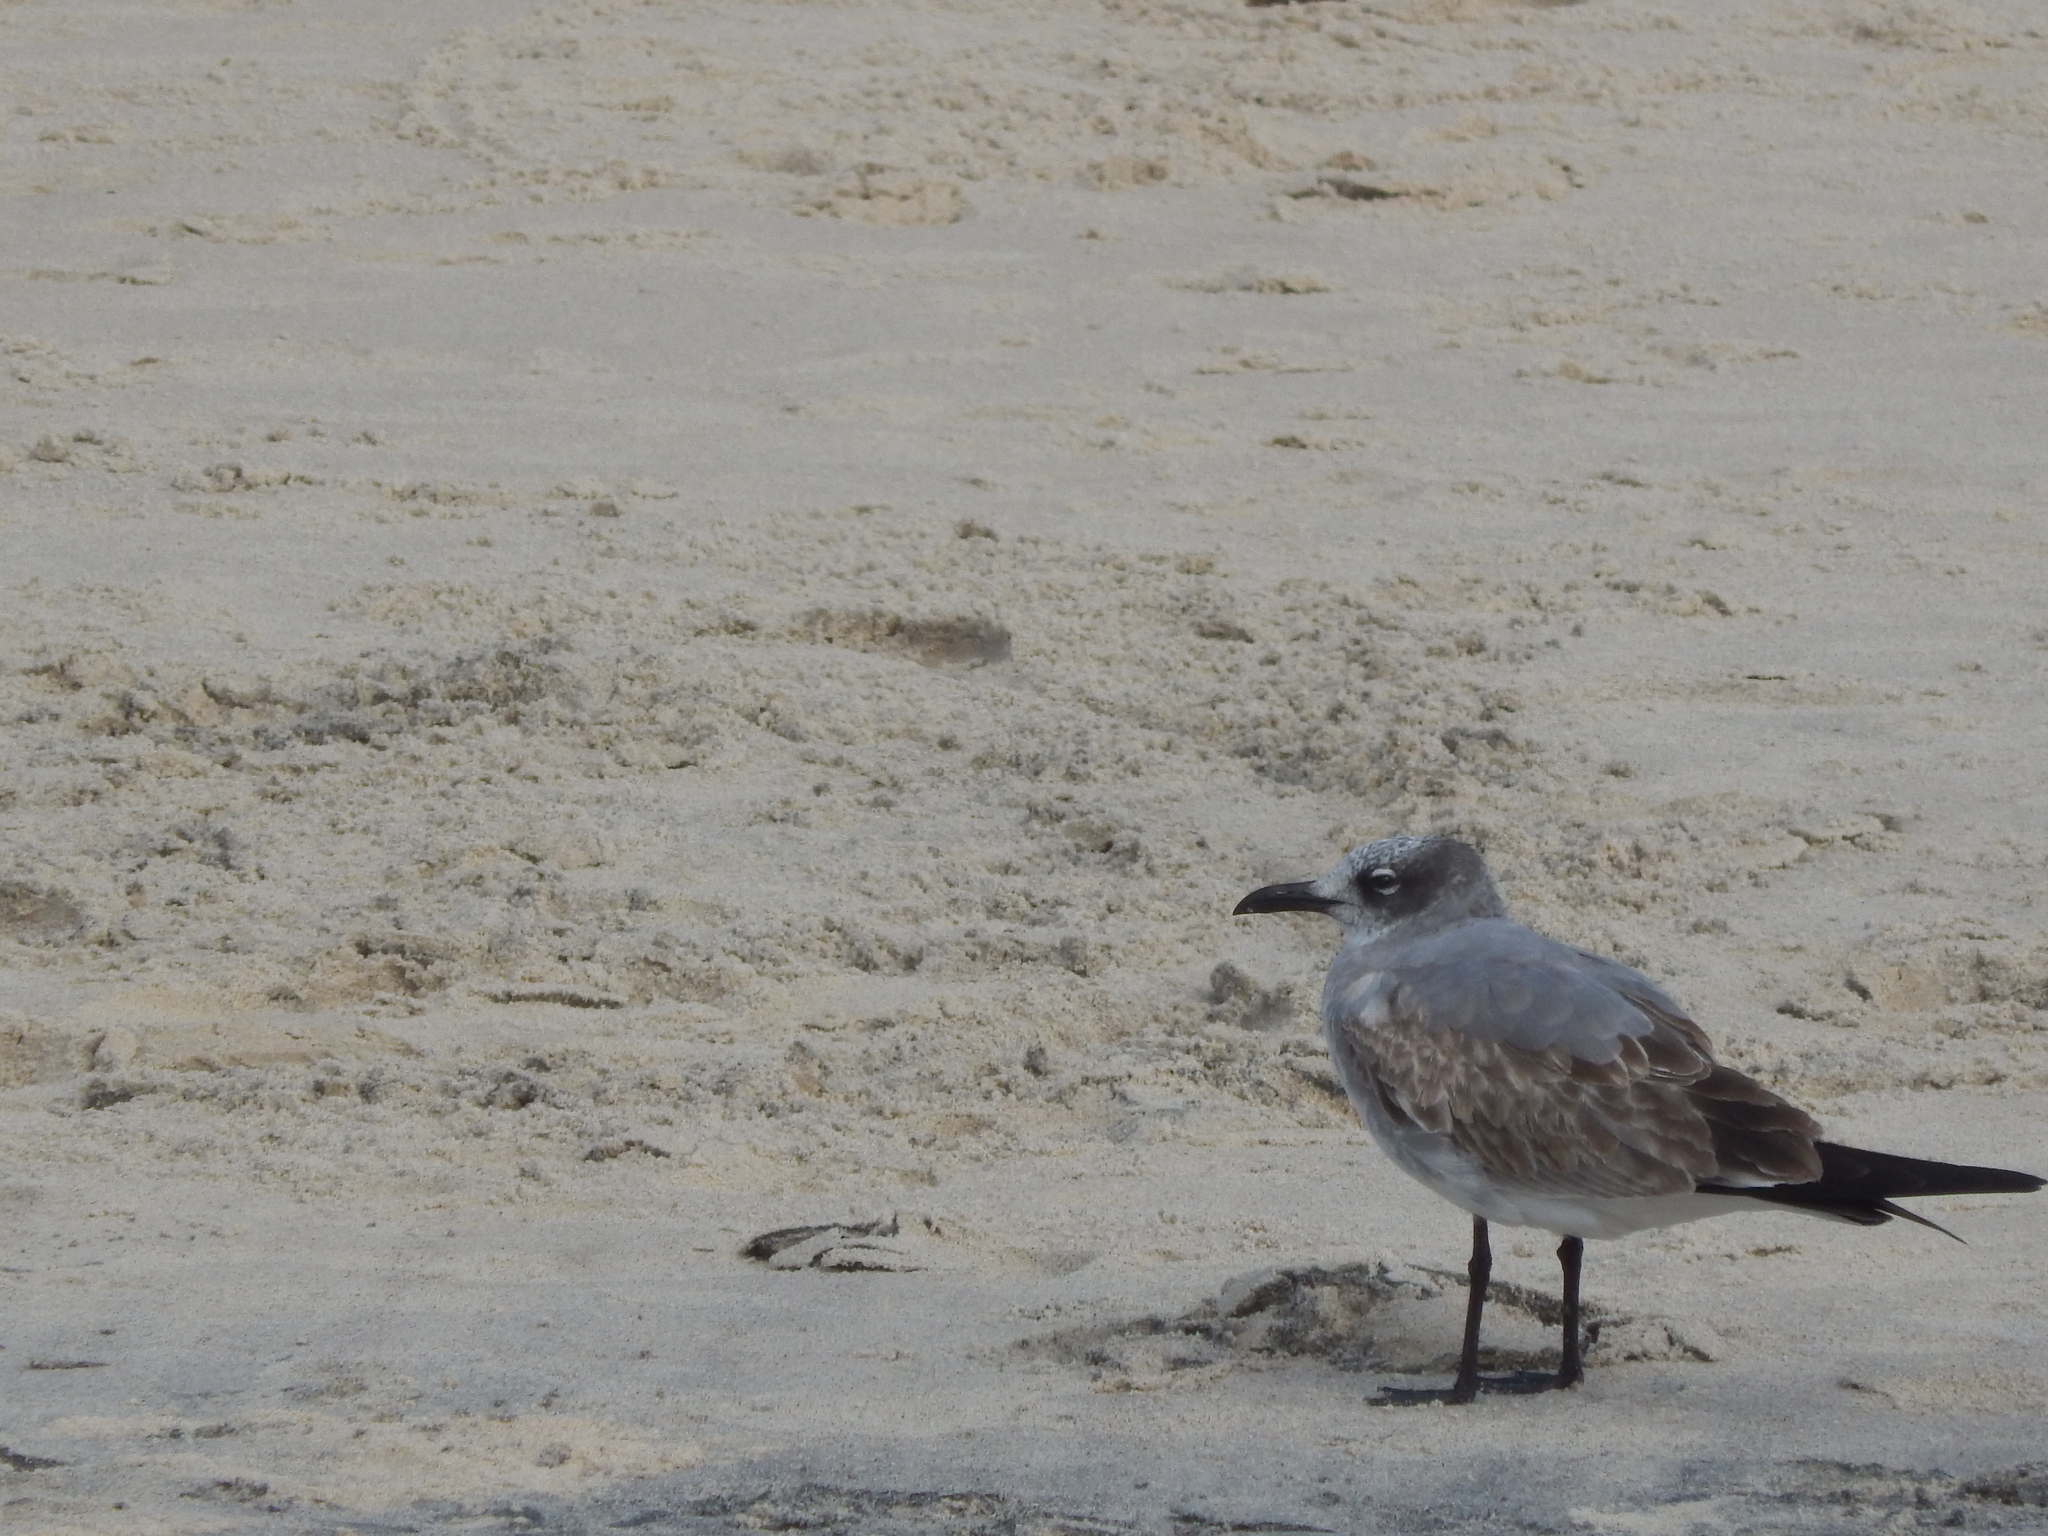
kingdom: Animalia
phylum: Chordata
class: Aves
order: Charadriiformes
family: Laridae
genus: Leucophaeus
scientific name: Leucophaeus atricilla
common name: Laughing gull
